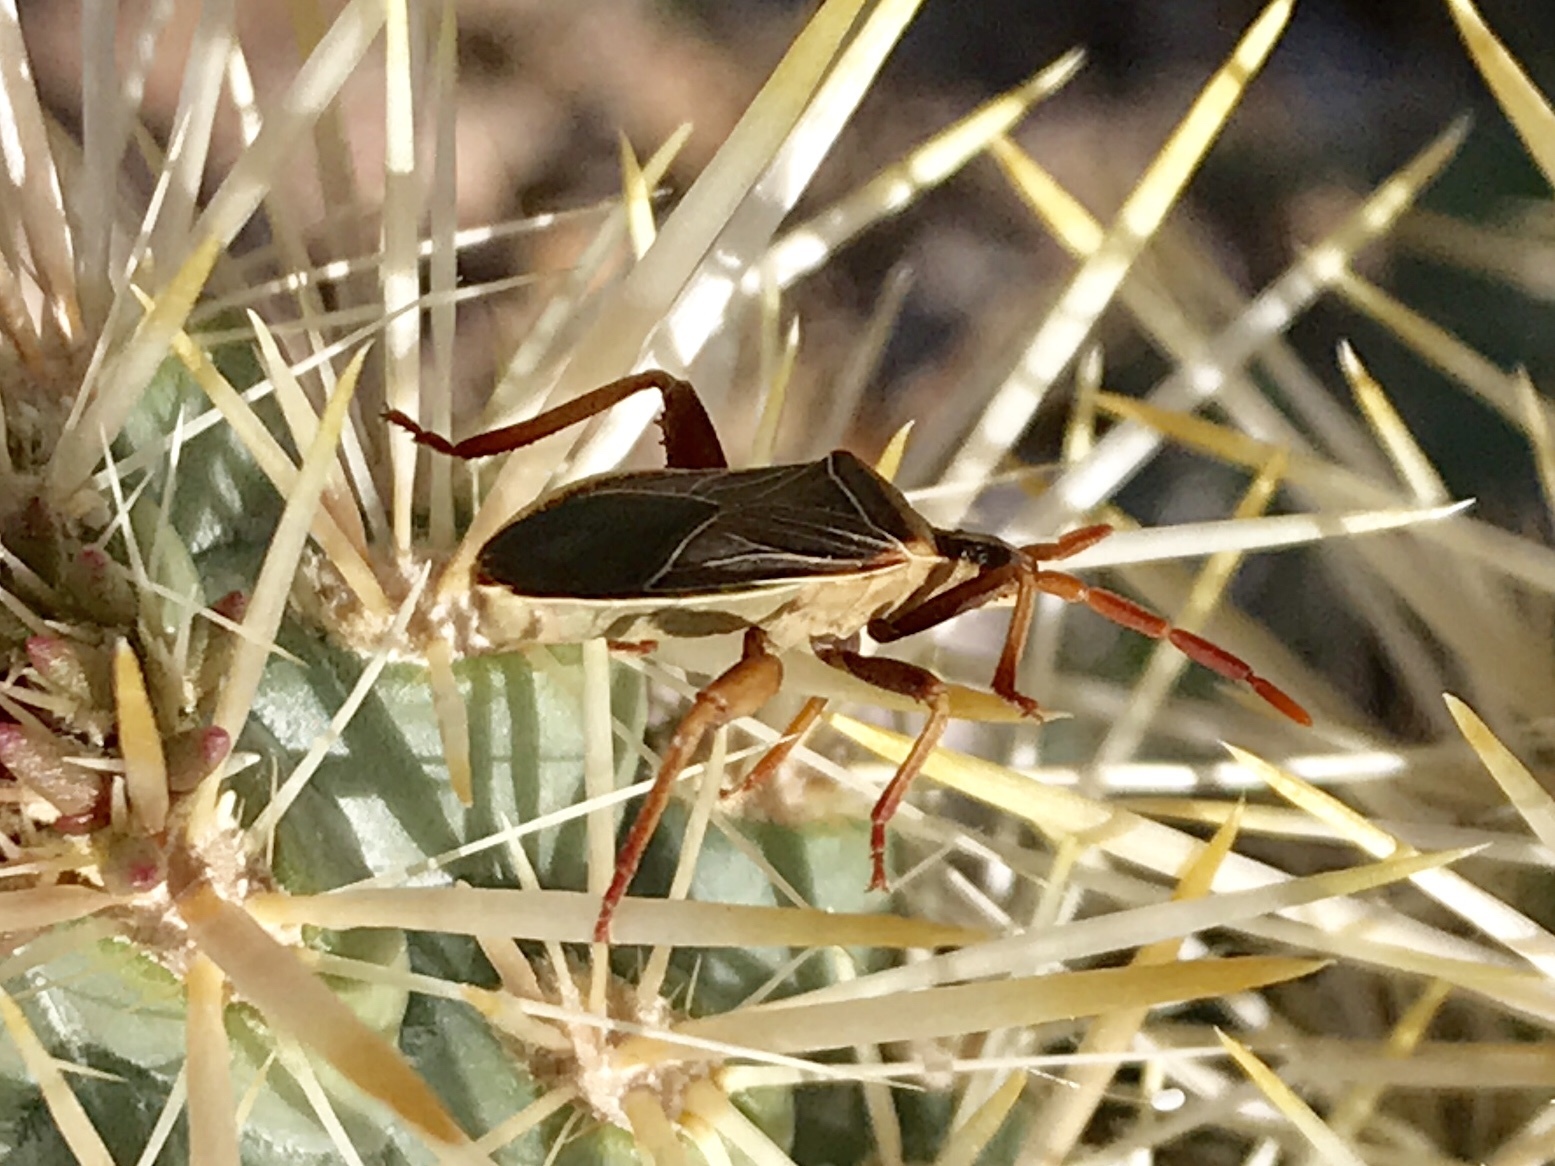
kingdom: Animalia
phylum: Arthropoda
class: Insecta
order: Hemiptera
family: Coreidae
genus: Chelinidea
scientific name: Chelinidea vittiger
